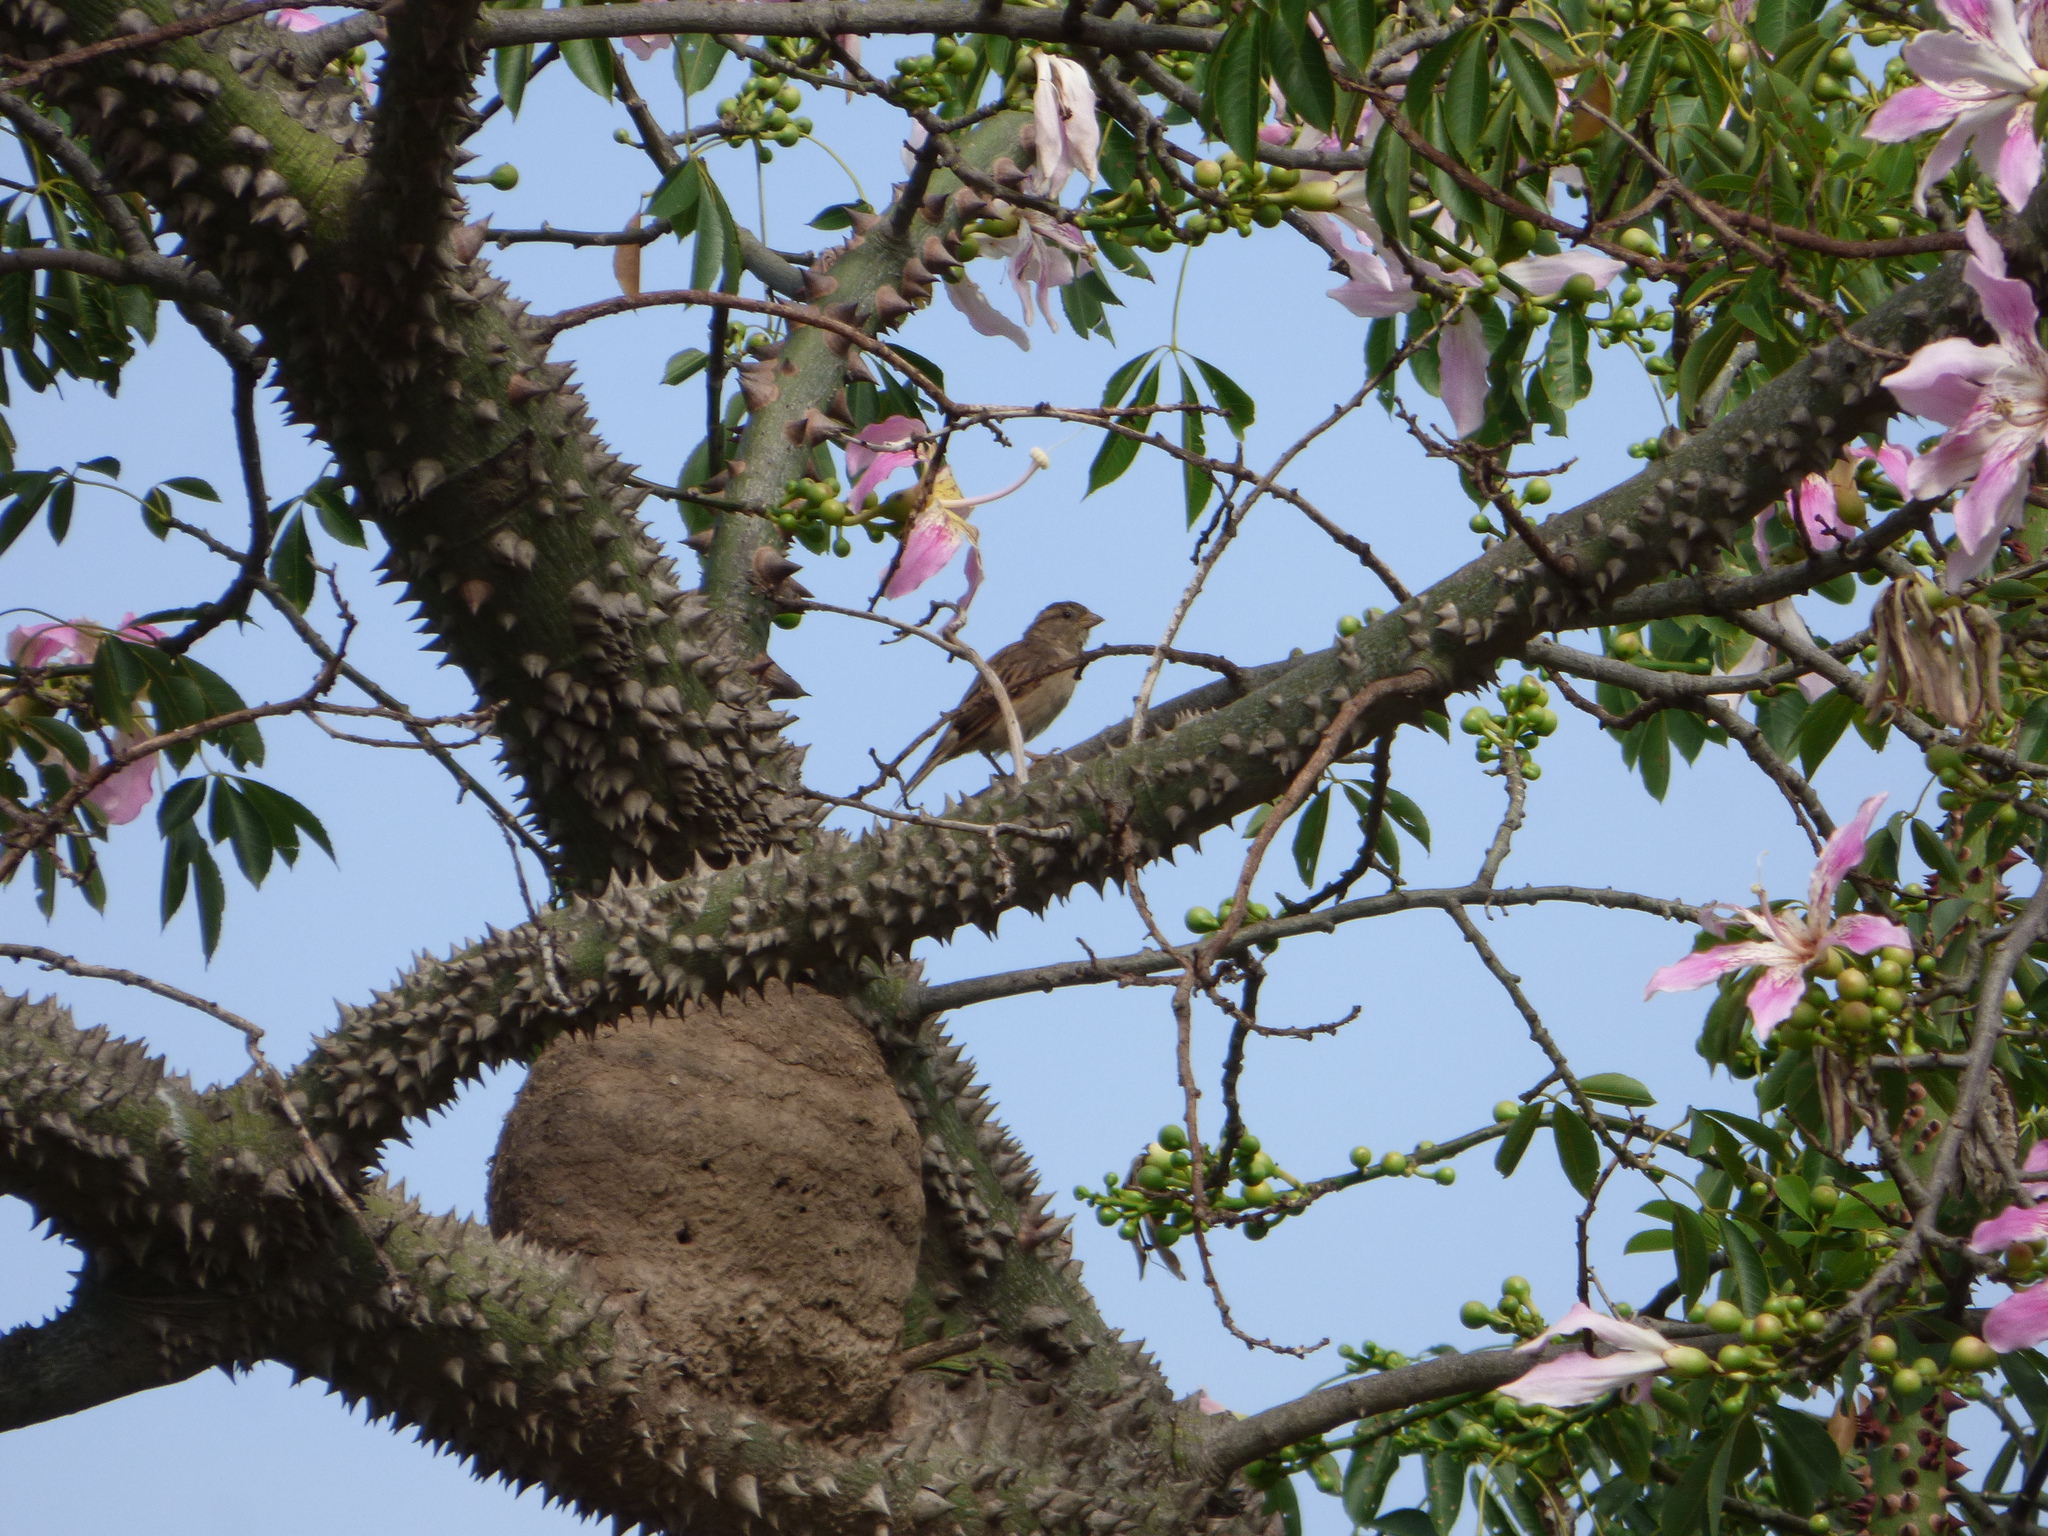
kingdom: Animalia
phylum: Chordata
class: Aves
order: Passeriformes
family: Passeridae
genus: Passer
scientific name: Passer domesticus
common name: House sparrow
